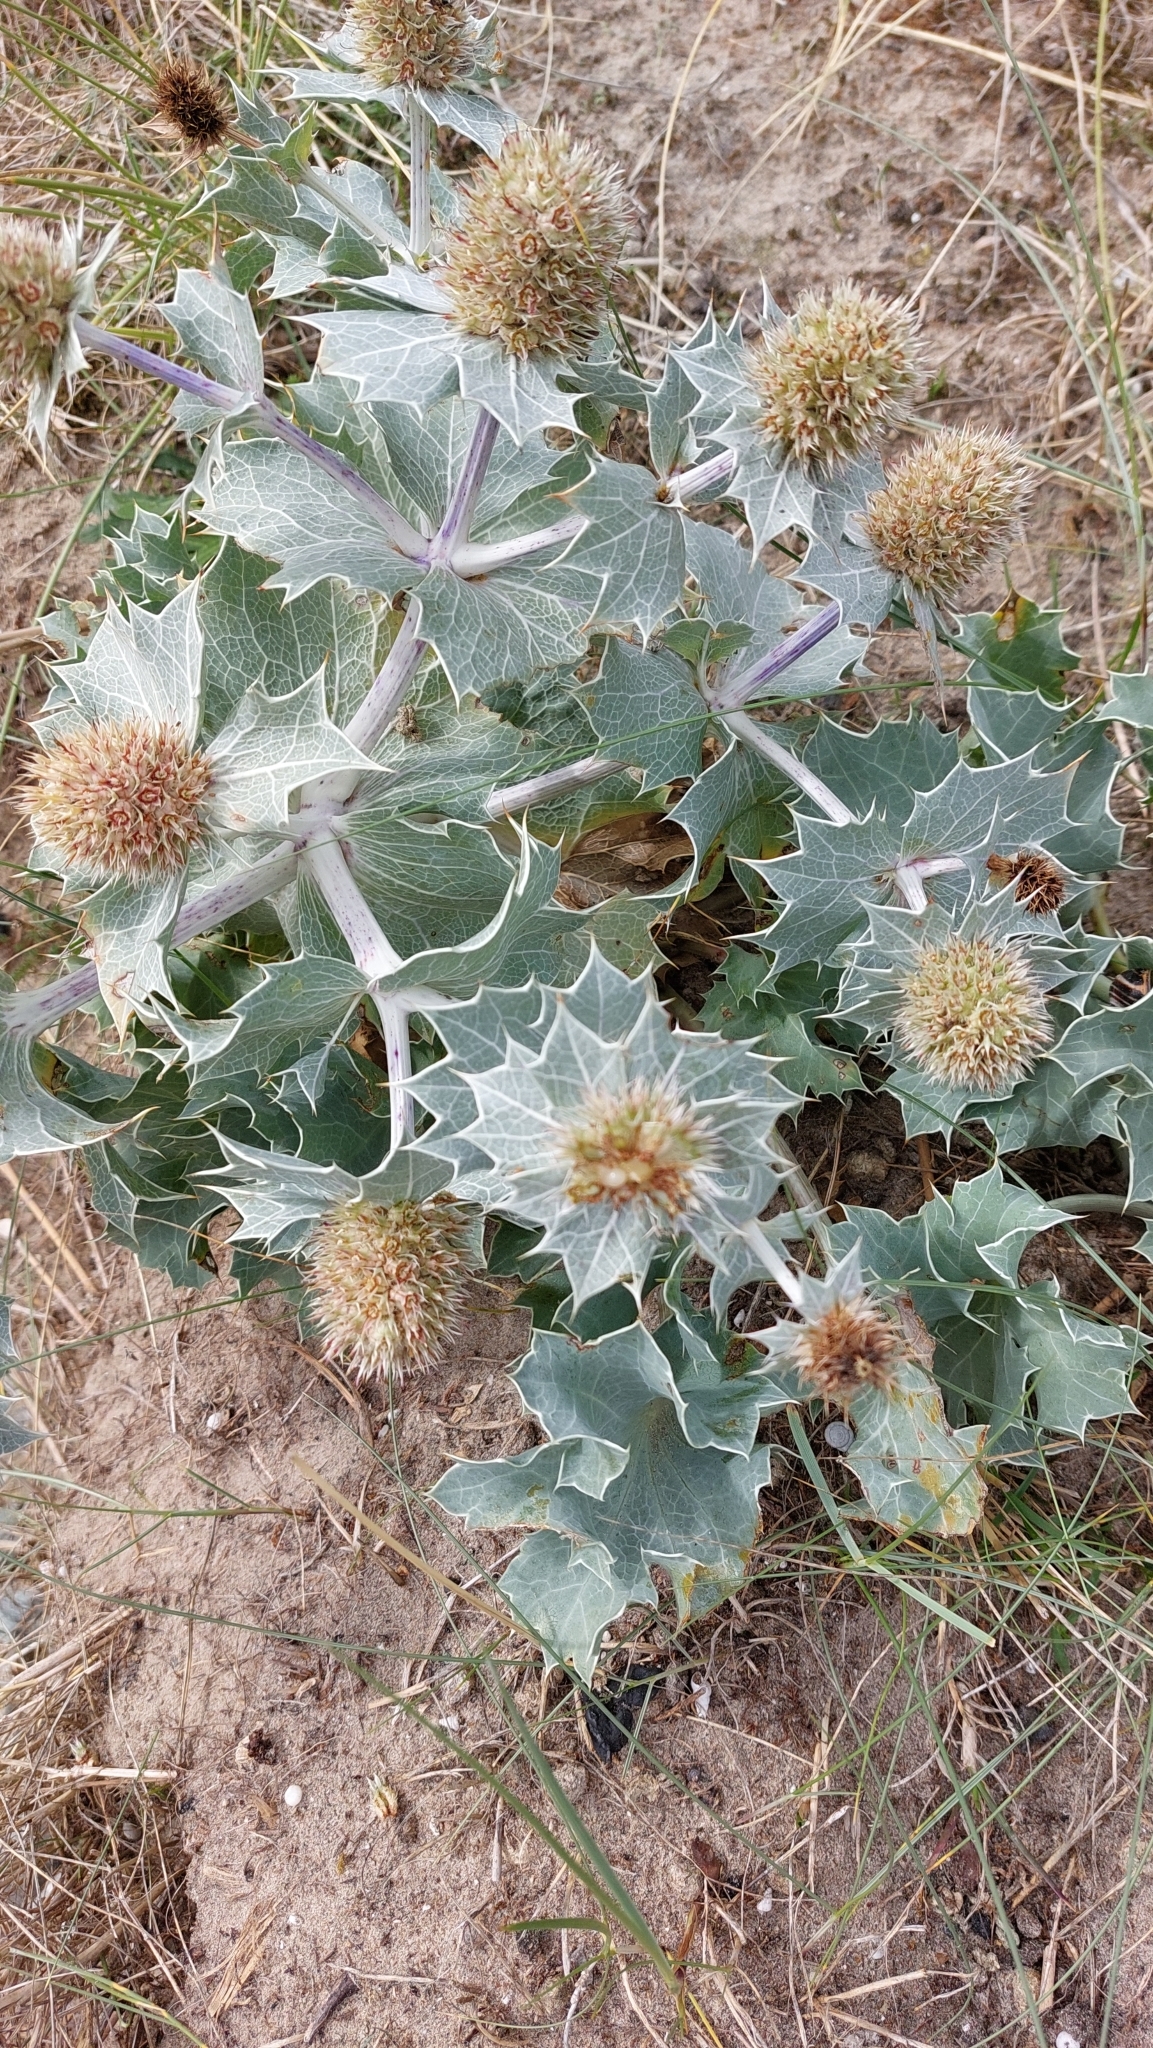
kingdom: Plantae
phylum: Tracheophyta
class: Magnoliopsida
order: Apiales
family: Apiaceae
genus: Eryngium
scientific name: Eryngium maritimum
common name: Sea-holly
